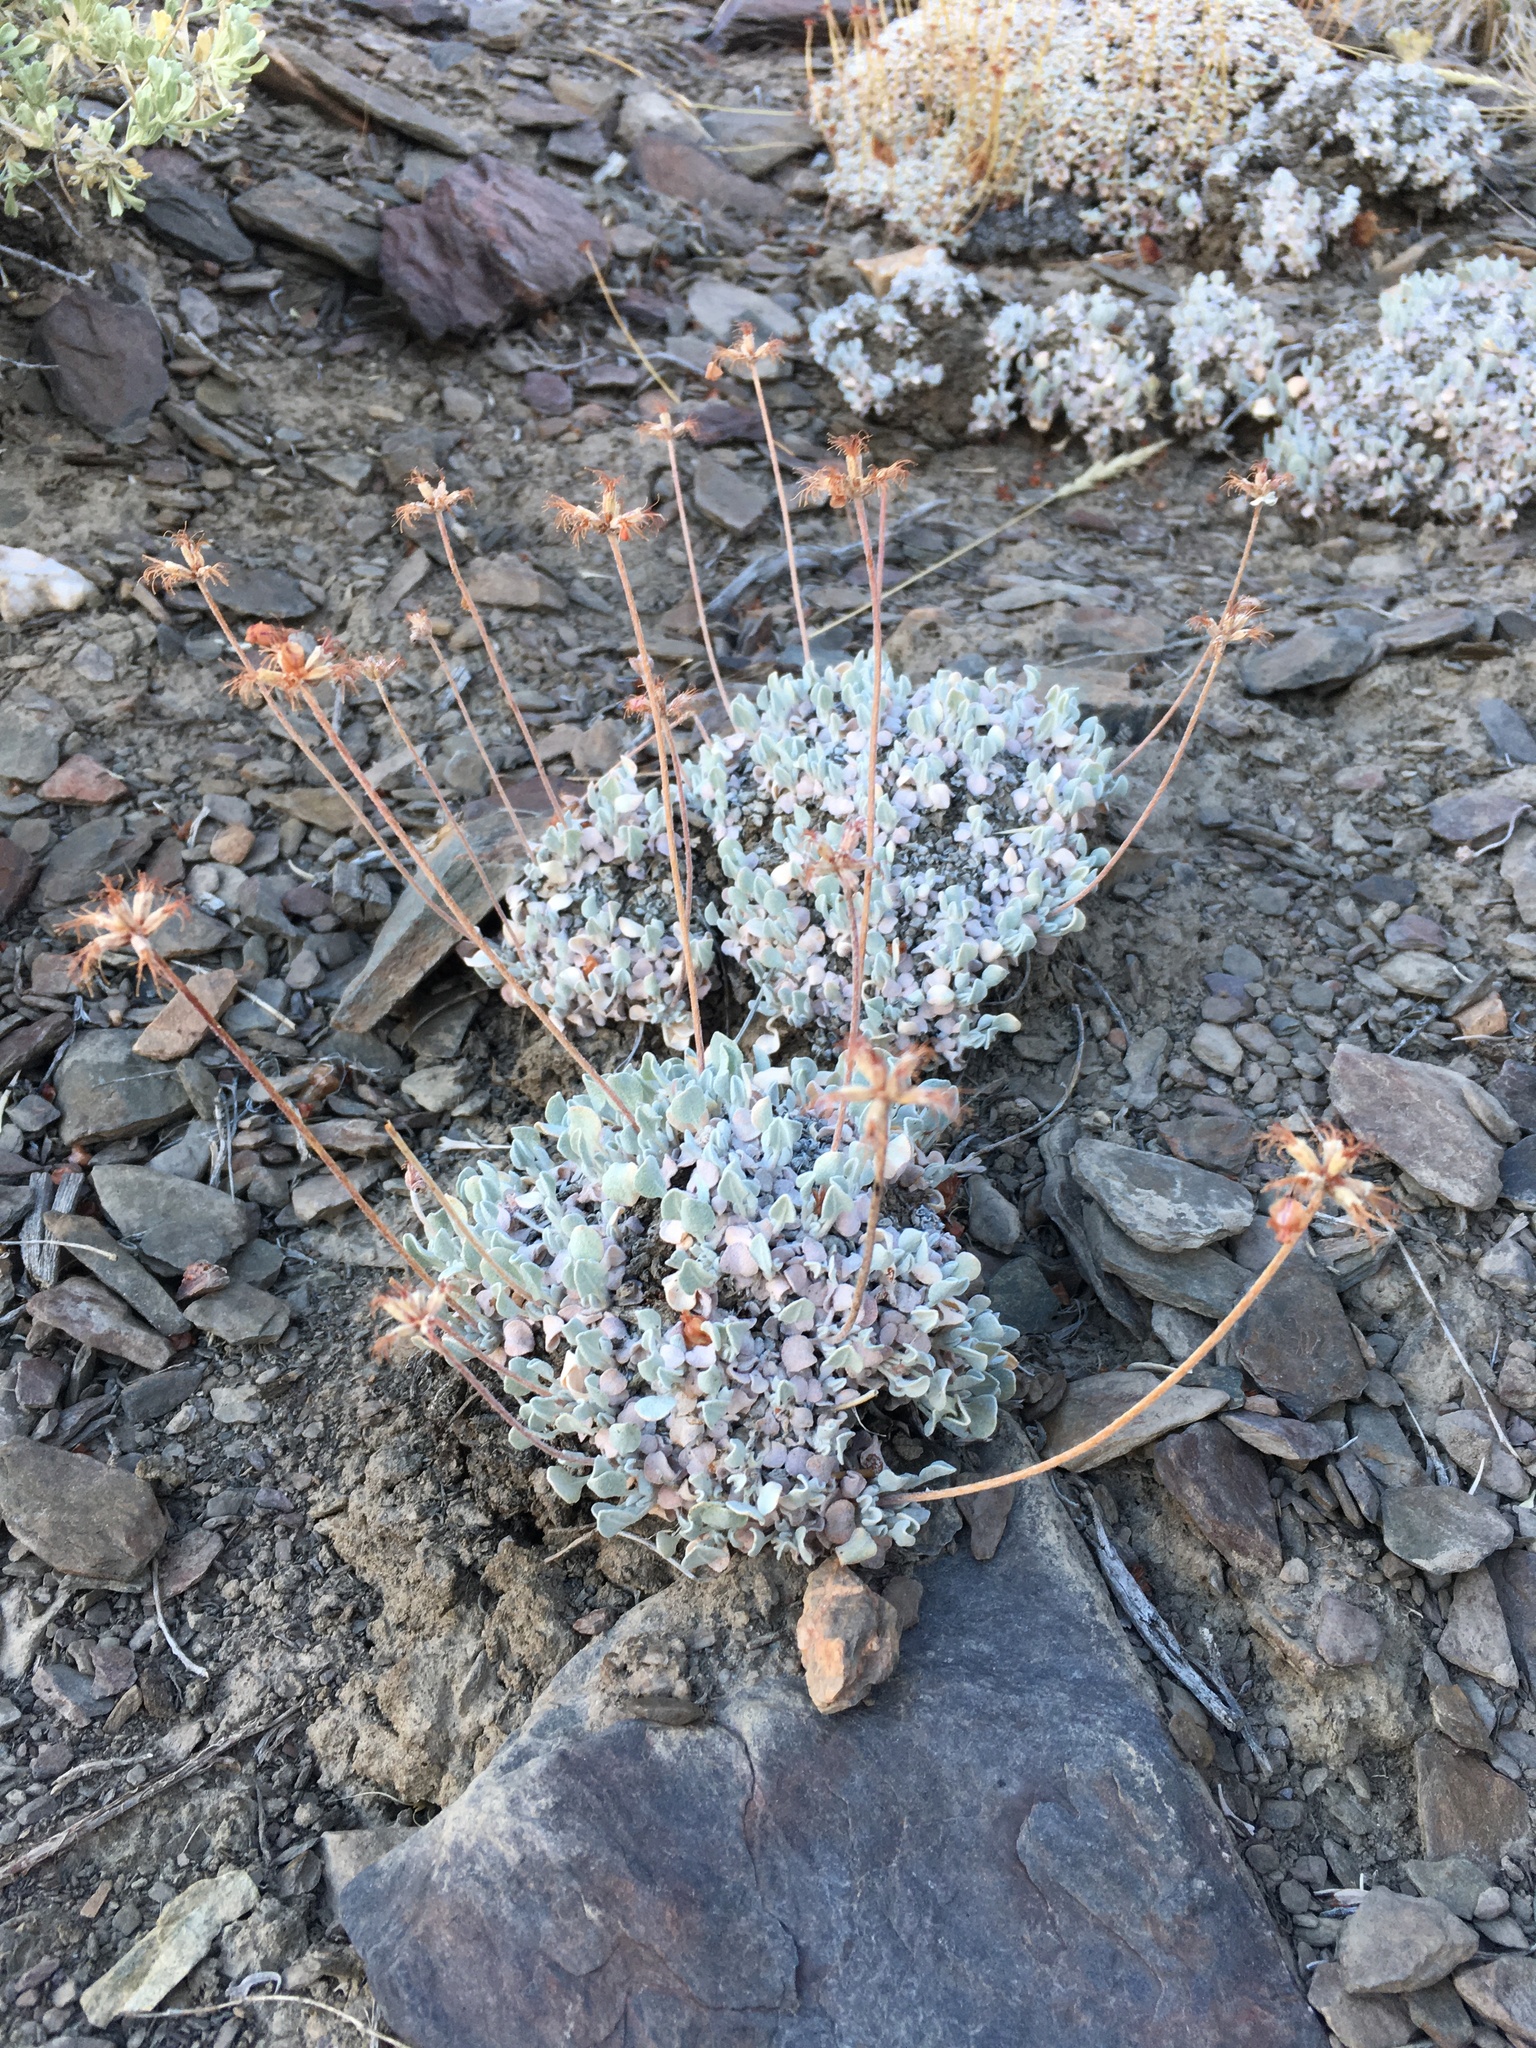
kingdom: Plantae
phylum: Tracheophyta
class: Magnoliopsida
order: Caryophyllales
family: Polygonaceae
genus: Eriogonum
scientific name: Eriogonum ovalifolium
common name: Cushion buckwheat
